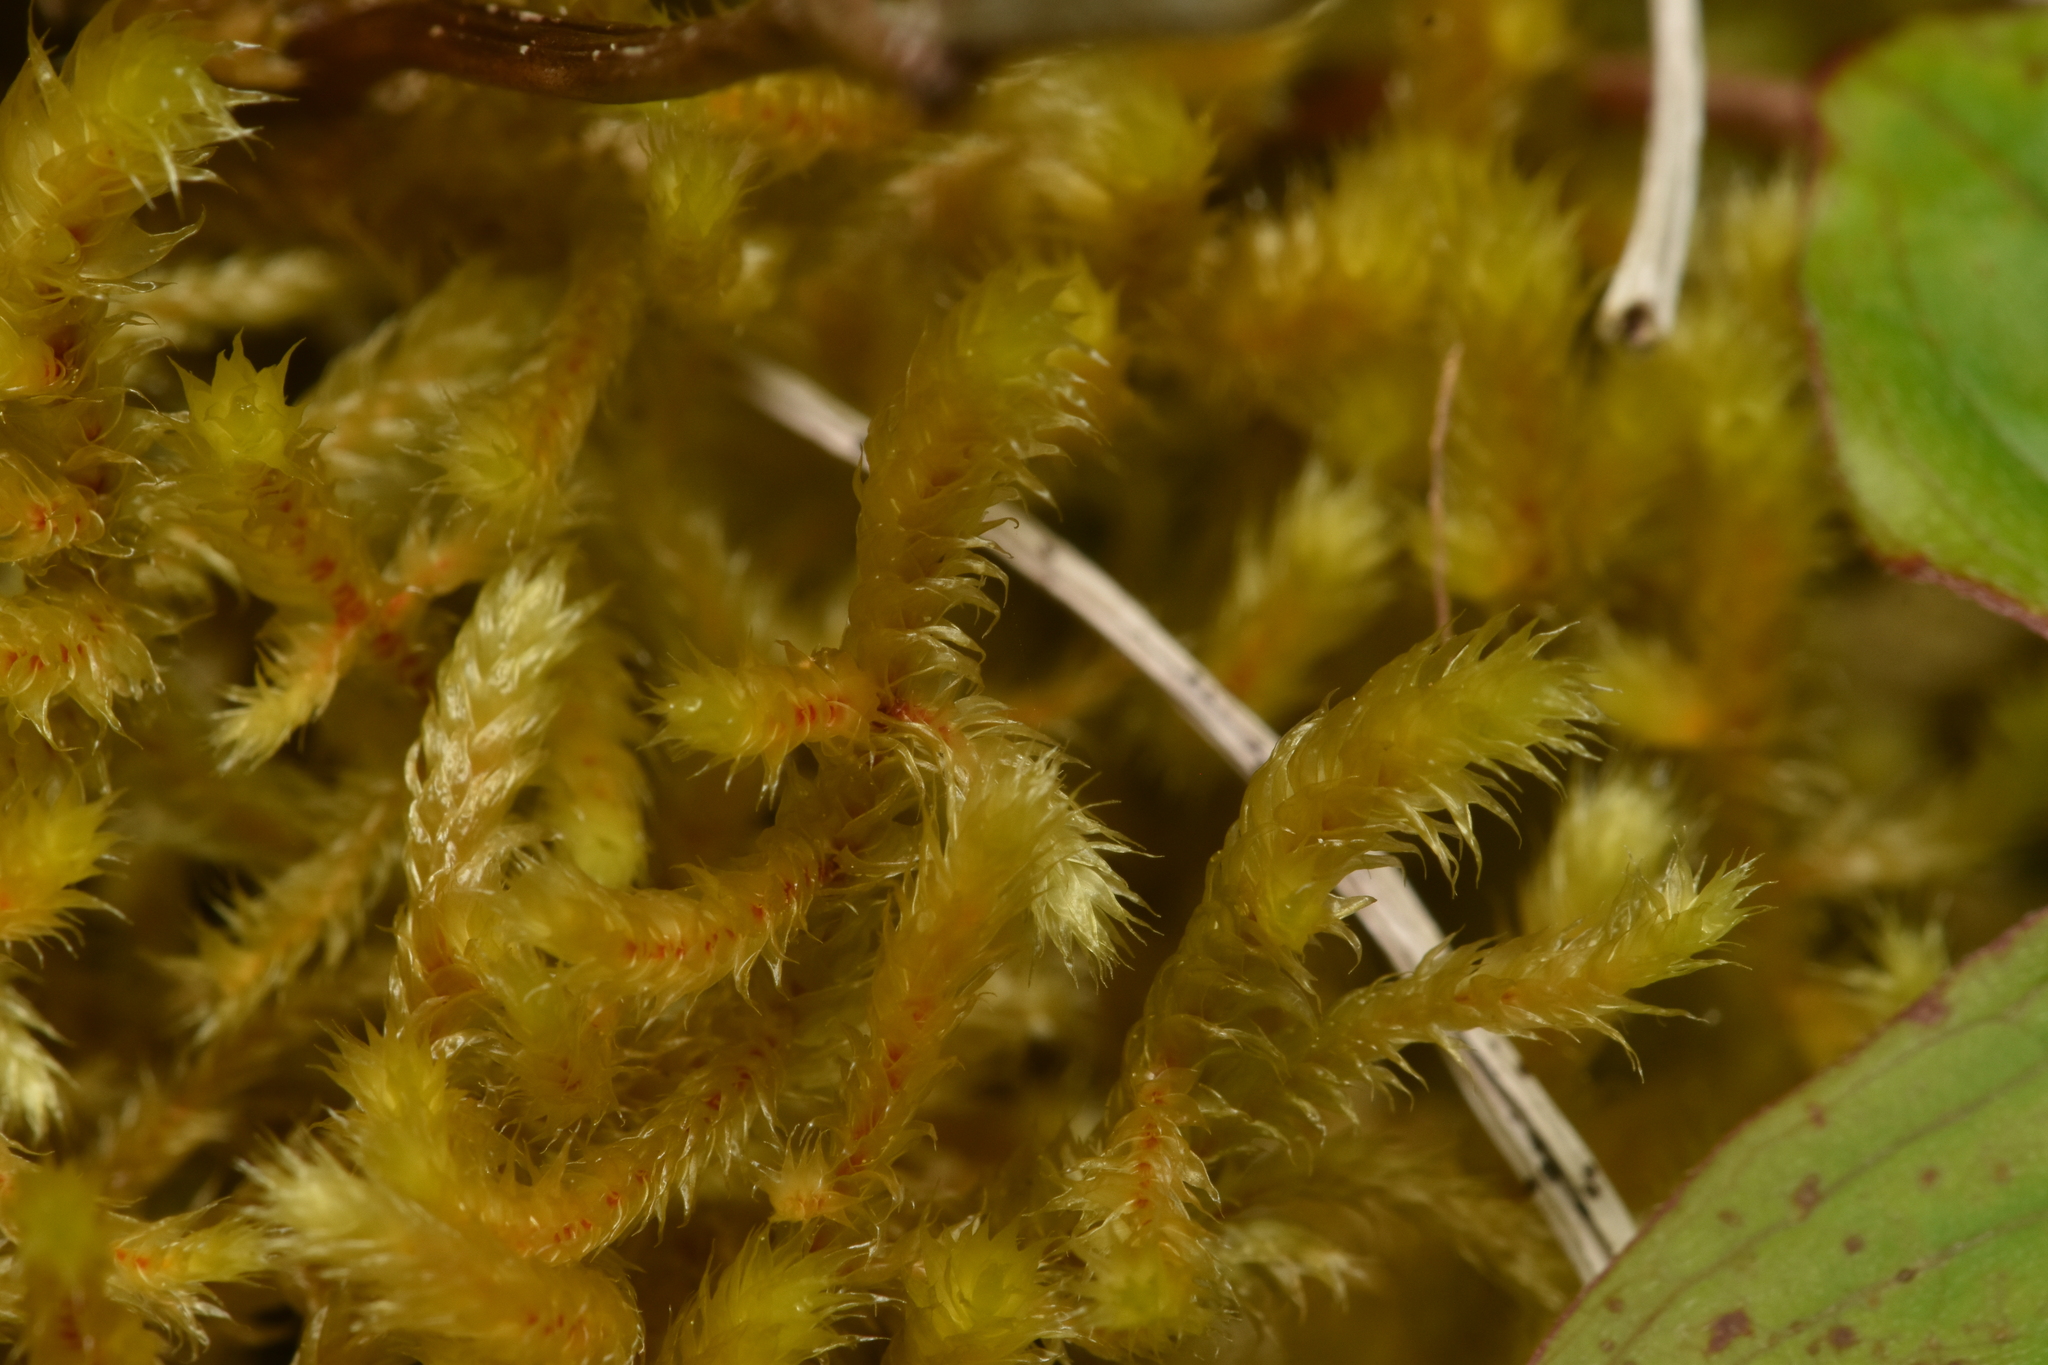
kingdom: Plantae
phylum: Bryophyta
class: Bryopsida
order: Hypnales
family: Antitrichiaceae
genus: Antitrichia
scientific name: Antitrichia curtipendula
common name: Pendulous wing-moss
